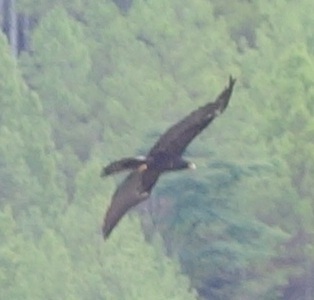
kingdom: Animalia
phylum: Chordata
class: Aves
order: Accipitriformes
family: Accipitridae
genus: Ictinaetus
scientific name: Ictinaetus malayensis
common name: Black eagle
